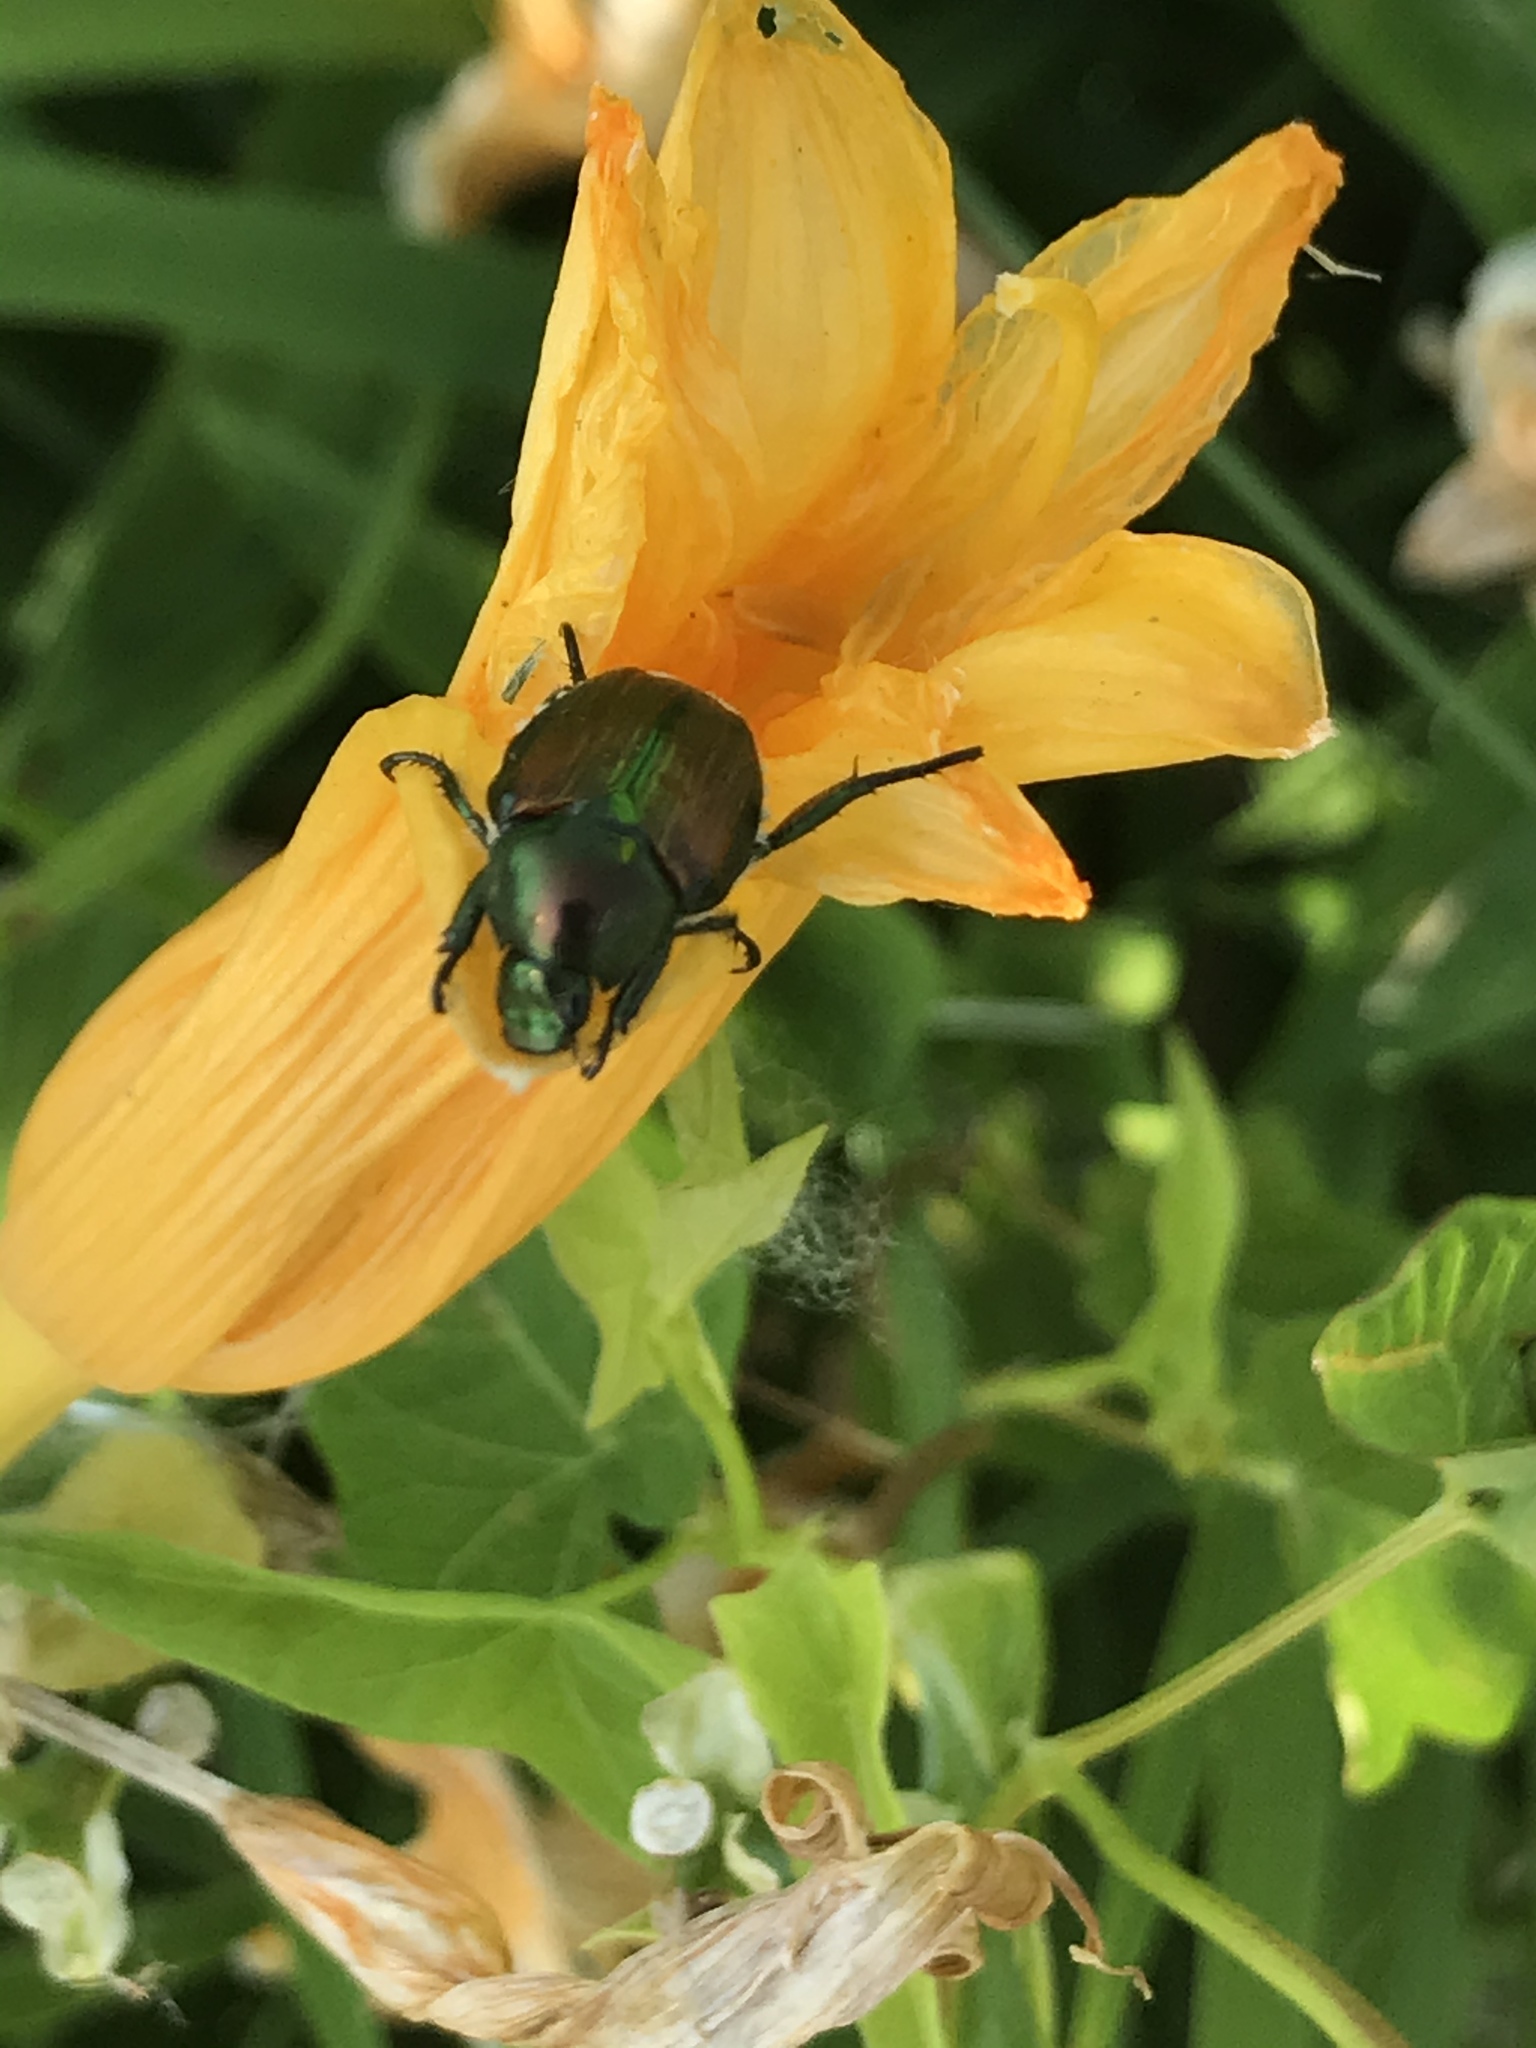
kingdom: Animalia
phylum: Arthropoda
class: Insecta
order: Coleoptera
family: Scarabaeidae
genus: Popillia
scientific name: Popillia japonica
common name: Japanese beetle
